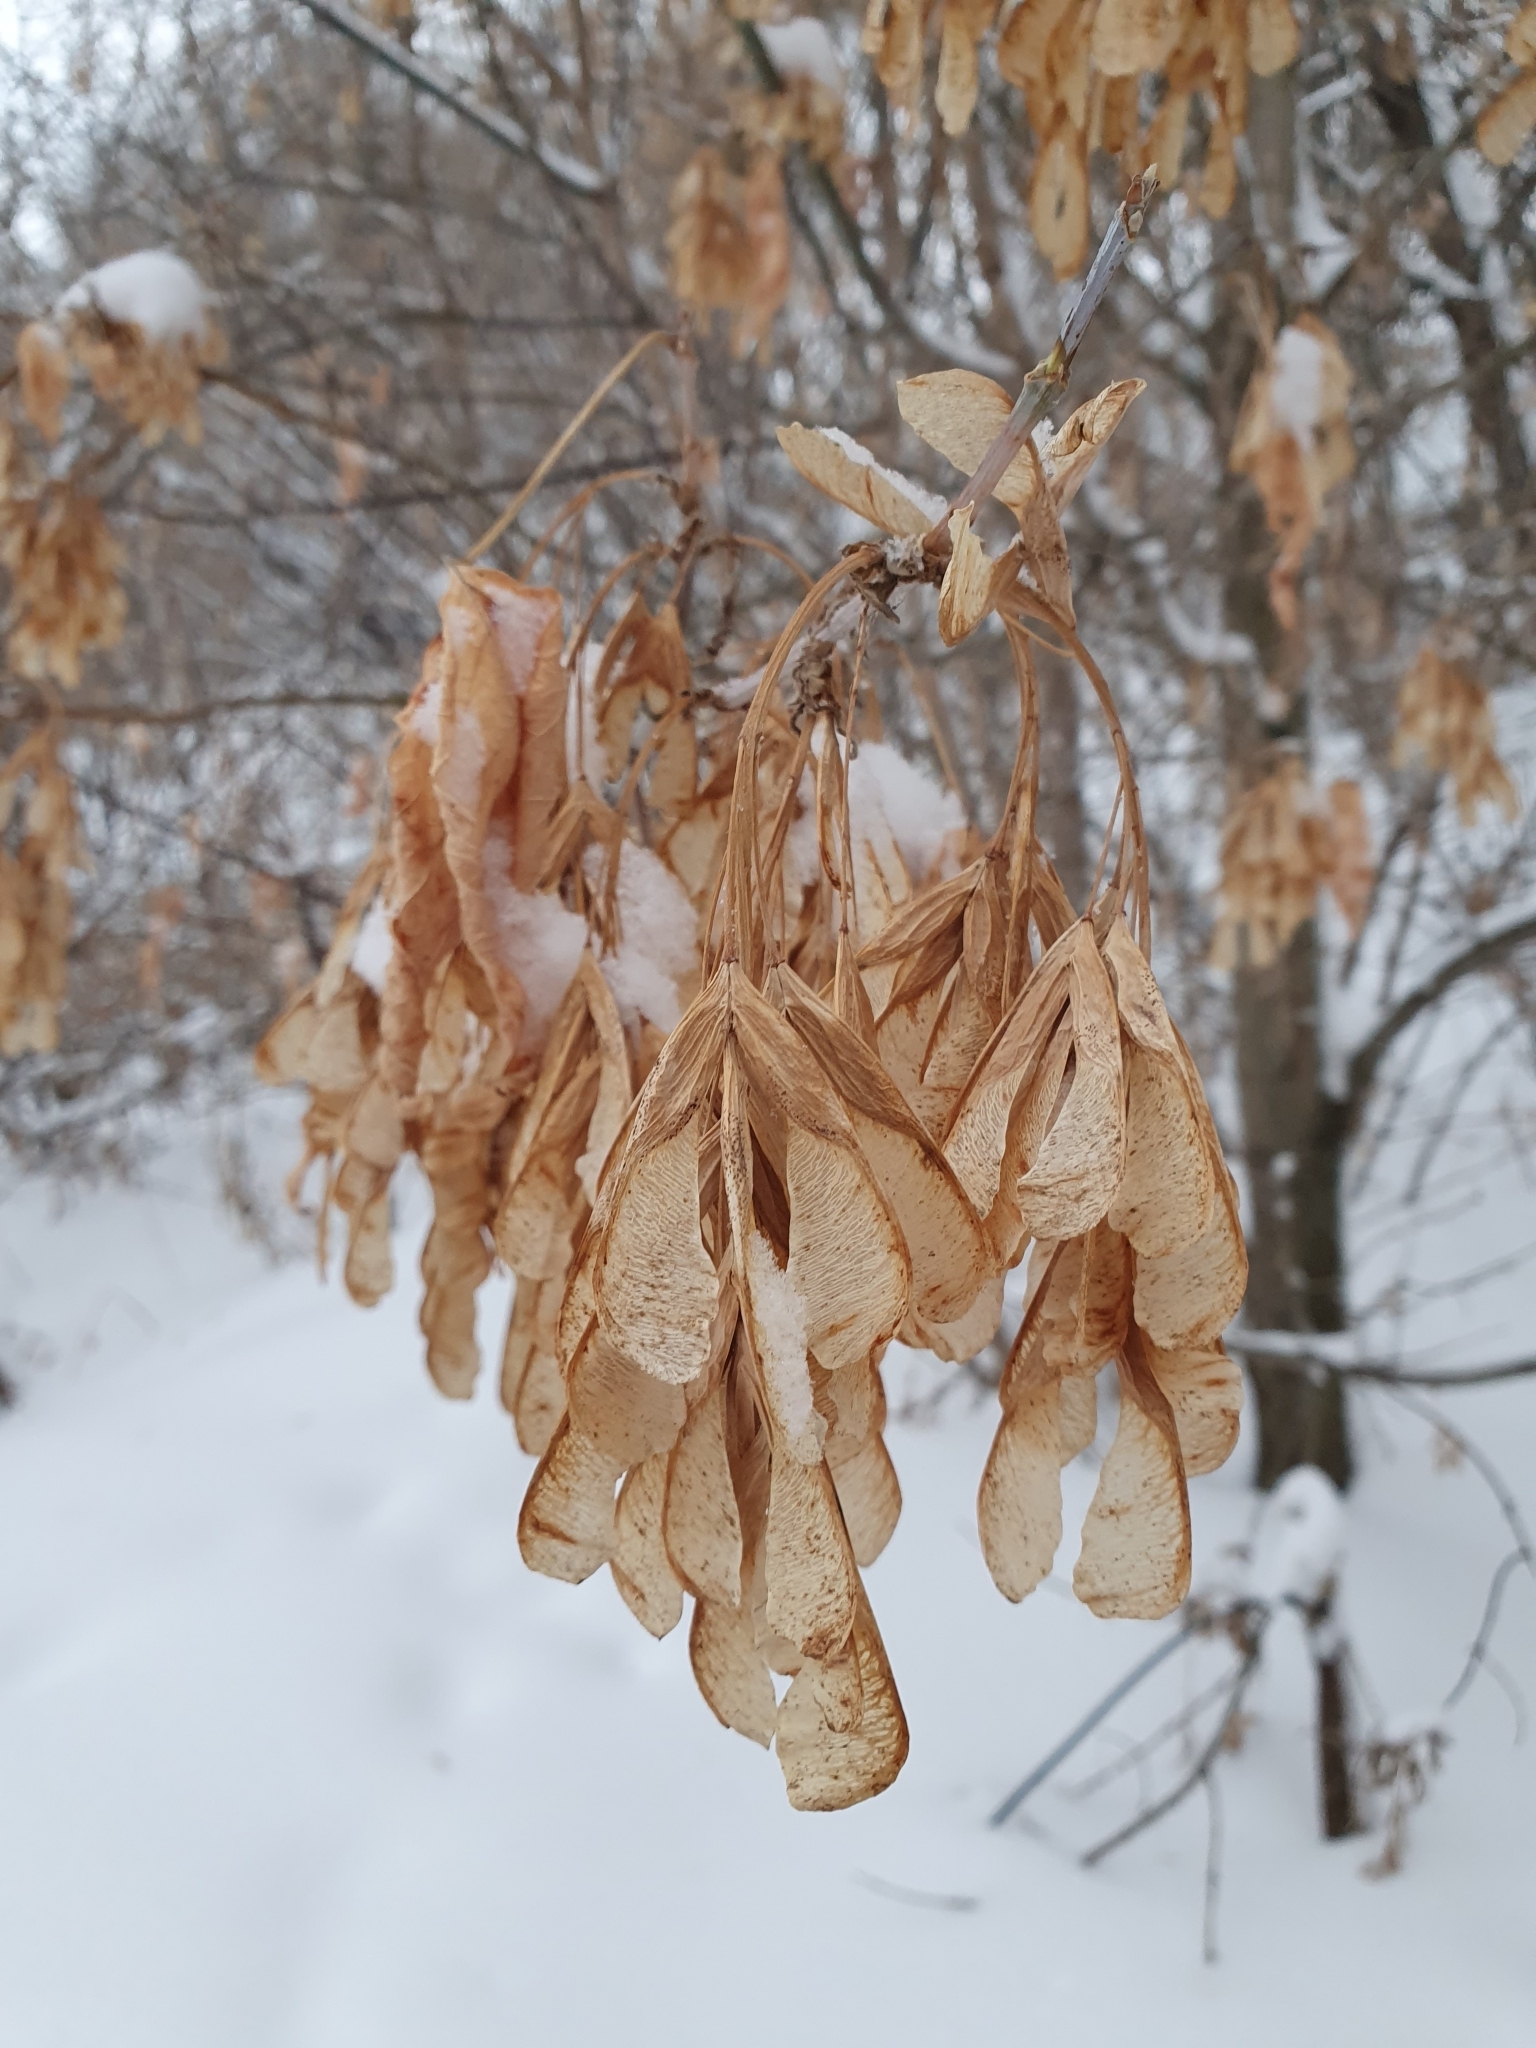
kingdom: Plantae
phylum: Tracheophyta
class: Magnoliopsida
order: Sapindales
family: Sapindaceae
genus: Acer
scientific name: Acer negundo
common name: Ashleaf maple
